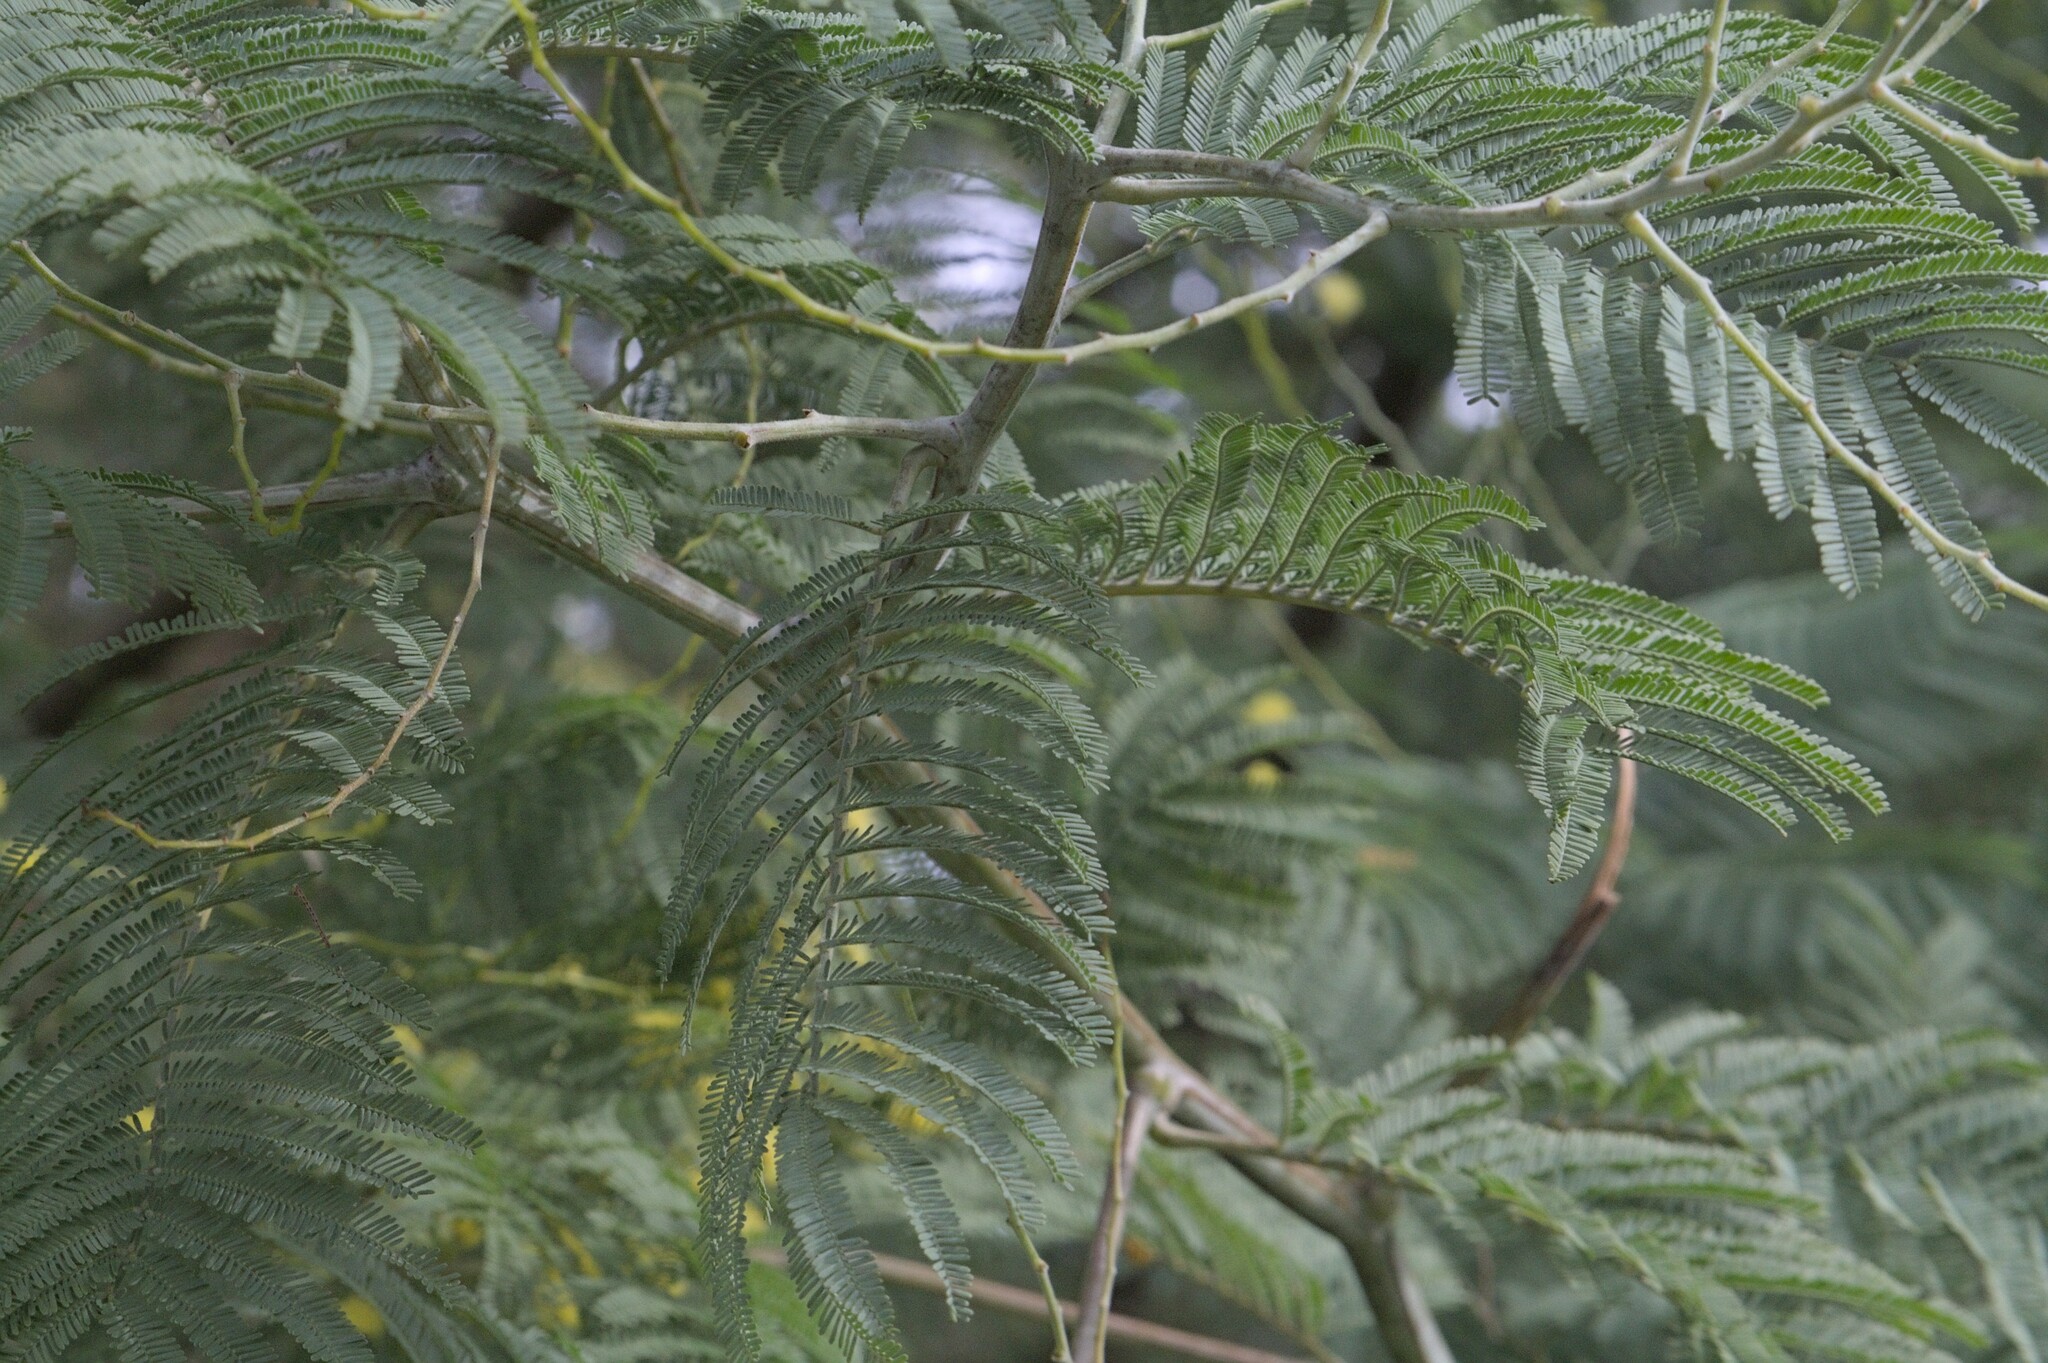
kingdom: Plantae
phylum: Tracheophyta
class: Magnoliopsida
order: Fabales
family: Fabaceae
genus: Acacia
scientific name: Acacia dealbata
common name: Silver wattle
